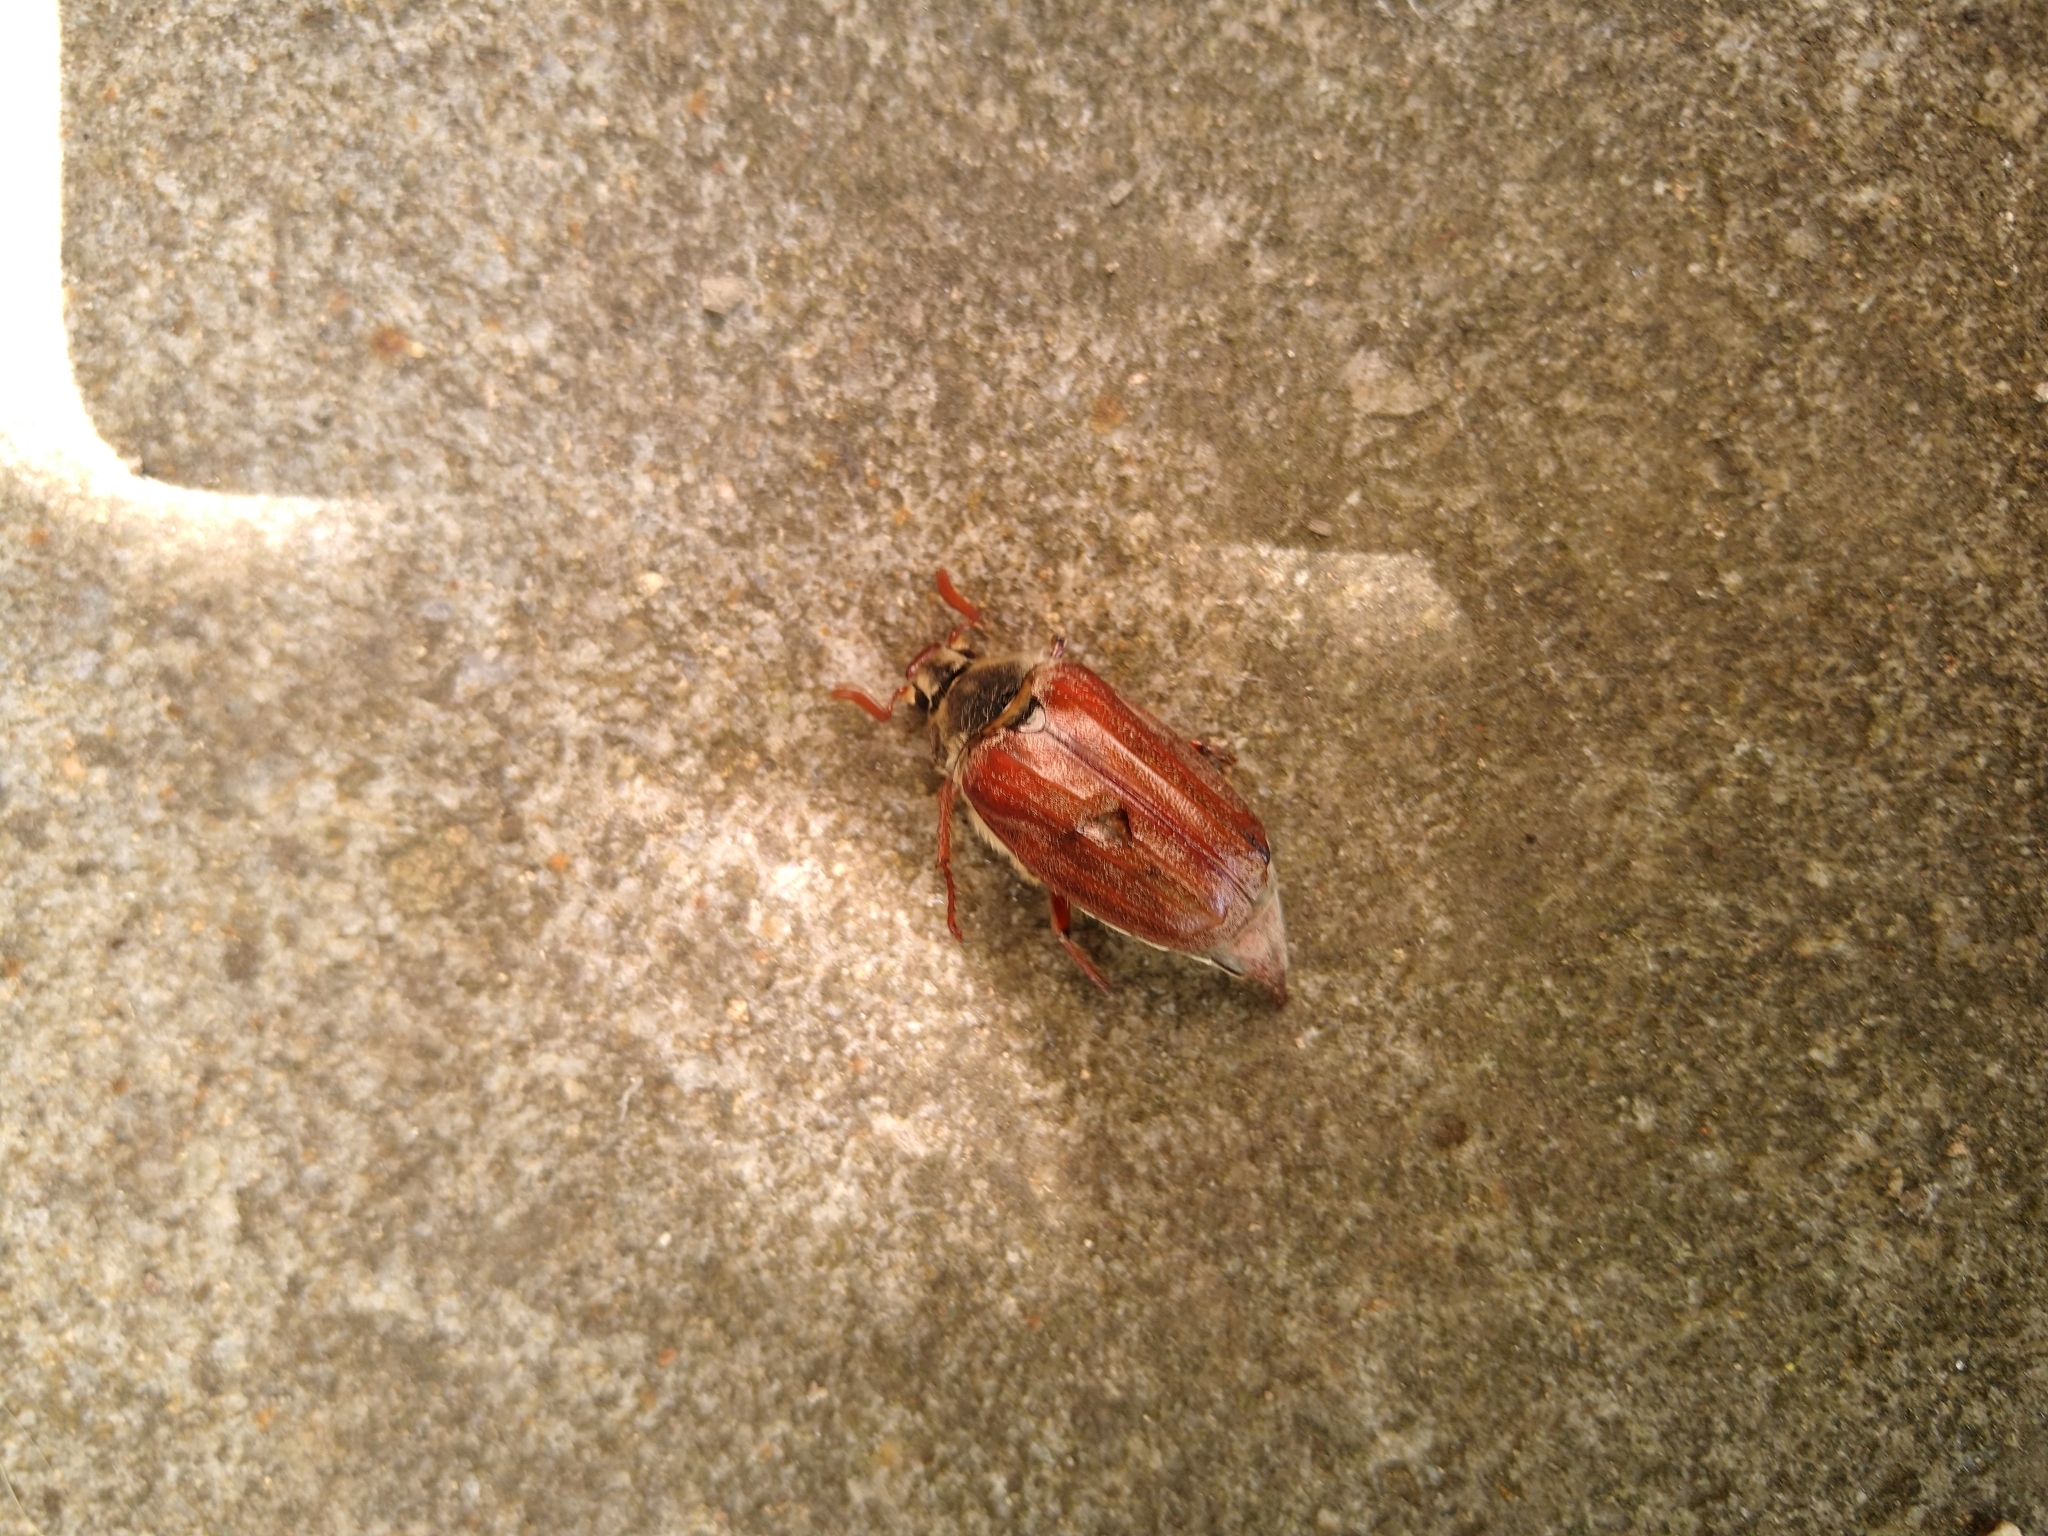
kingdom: Animalia
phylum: Arthropoda
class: Insecta
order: Coleoptera
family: Scarabaeidae
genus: Melolontha
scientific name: Melolontha melolontha
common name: Cockchafer maybeetle
